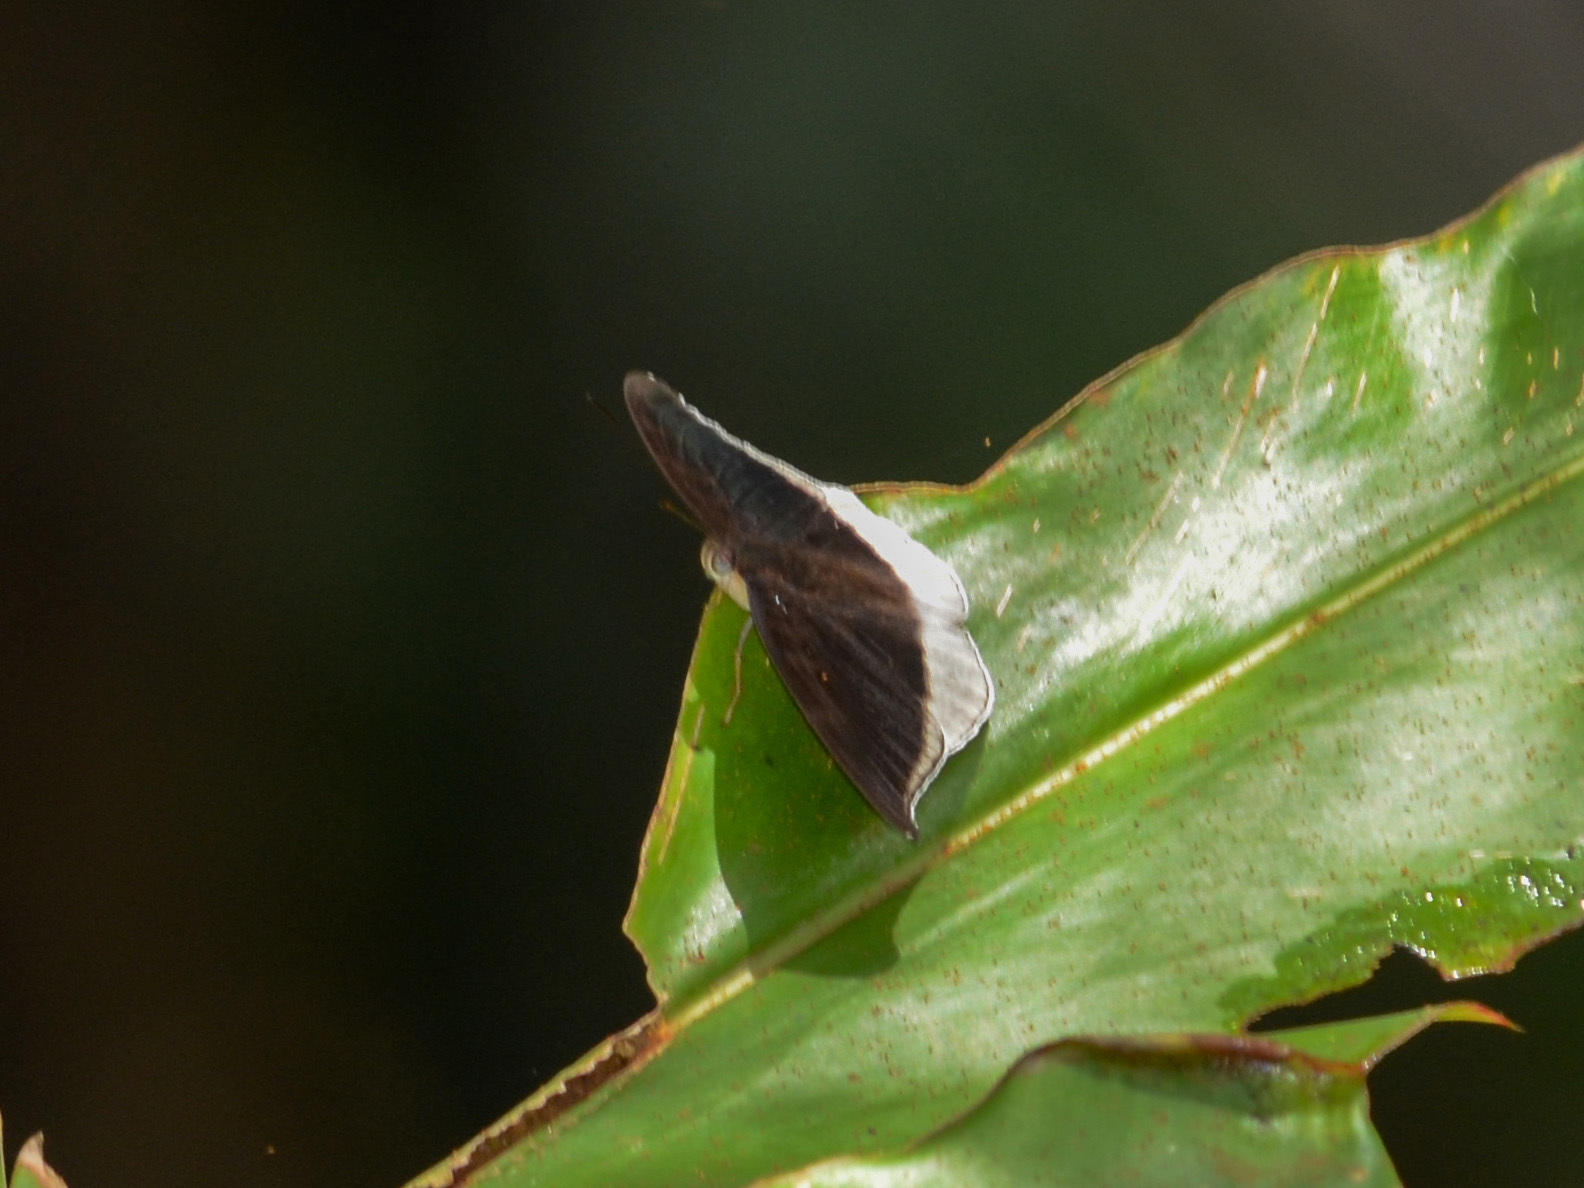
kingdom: Animalia
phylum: Arthropoda
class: Insecta
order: Lepidoptera
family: Nymphalidae
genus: Tanaecia
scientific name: Tanaecia lepidea
